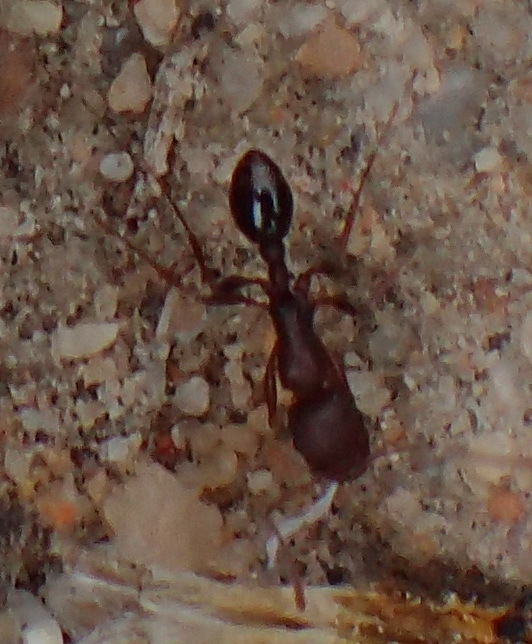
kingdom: Animalia
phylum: Arthropoda
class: Insecta
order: Hymenoptera
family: Formicidae
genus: Tetramorium
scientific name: Tetramorium sericeiventre
